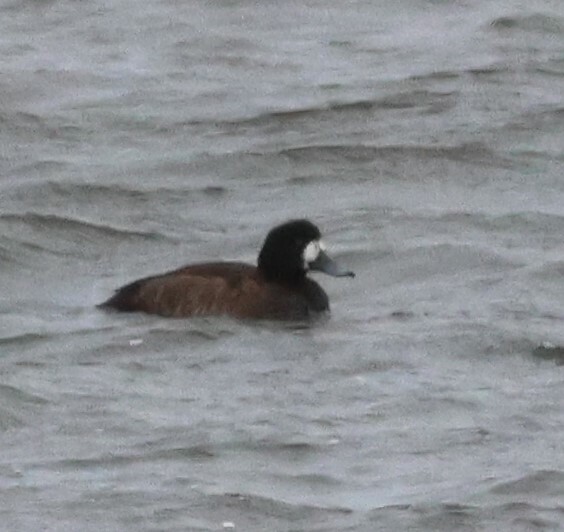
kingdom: Animalia
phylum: Chordata
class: Aves
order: Anseriformes
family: Anatidae
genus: Aythya
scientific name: Aythya marila
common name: Greater scaup
